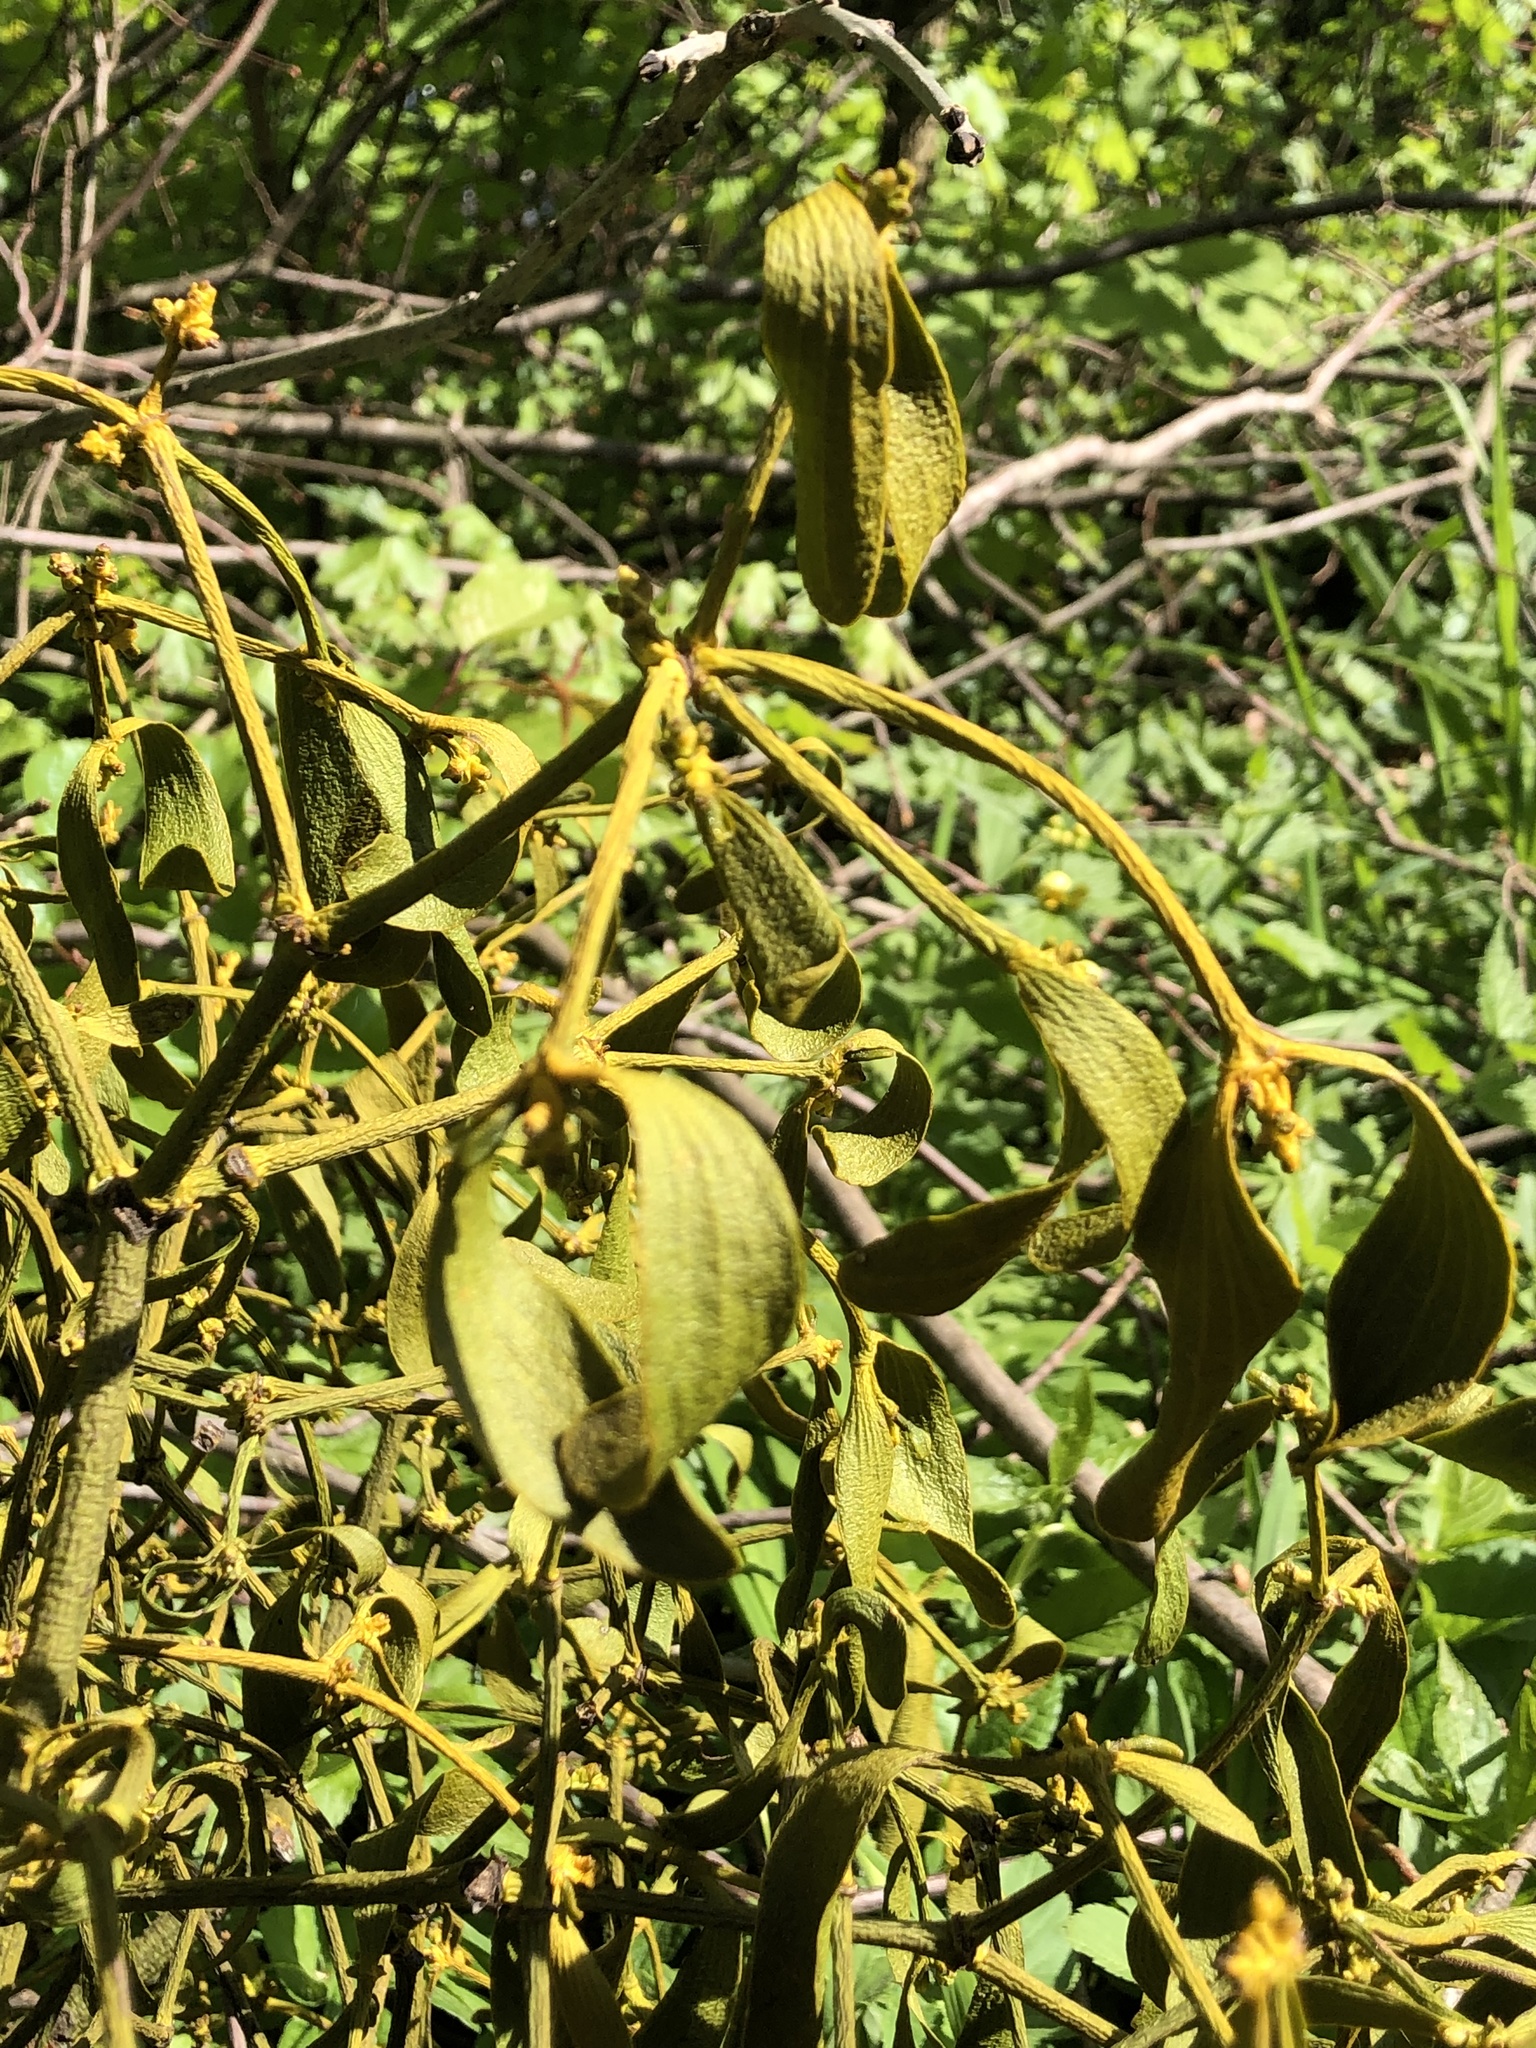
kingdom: Plantae
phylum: Tracheophyta
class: Magnoliopsida
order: Santalales
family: Viscaceae
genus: Viscum
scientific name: Viscum album
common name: Mistletoe
